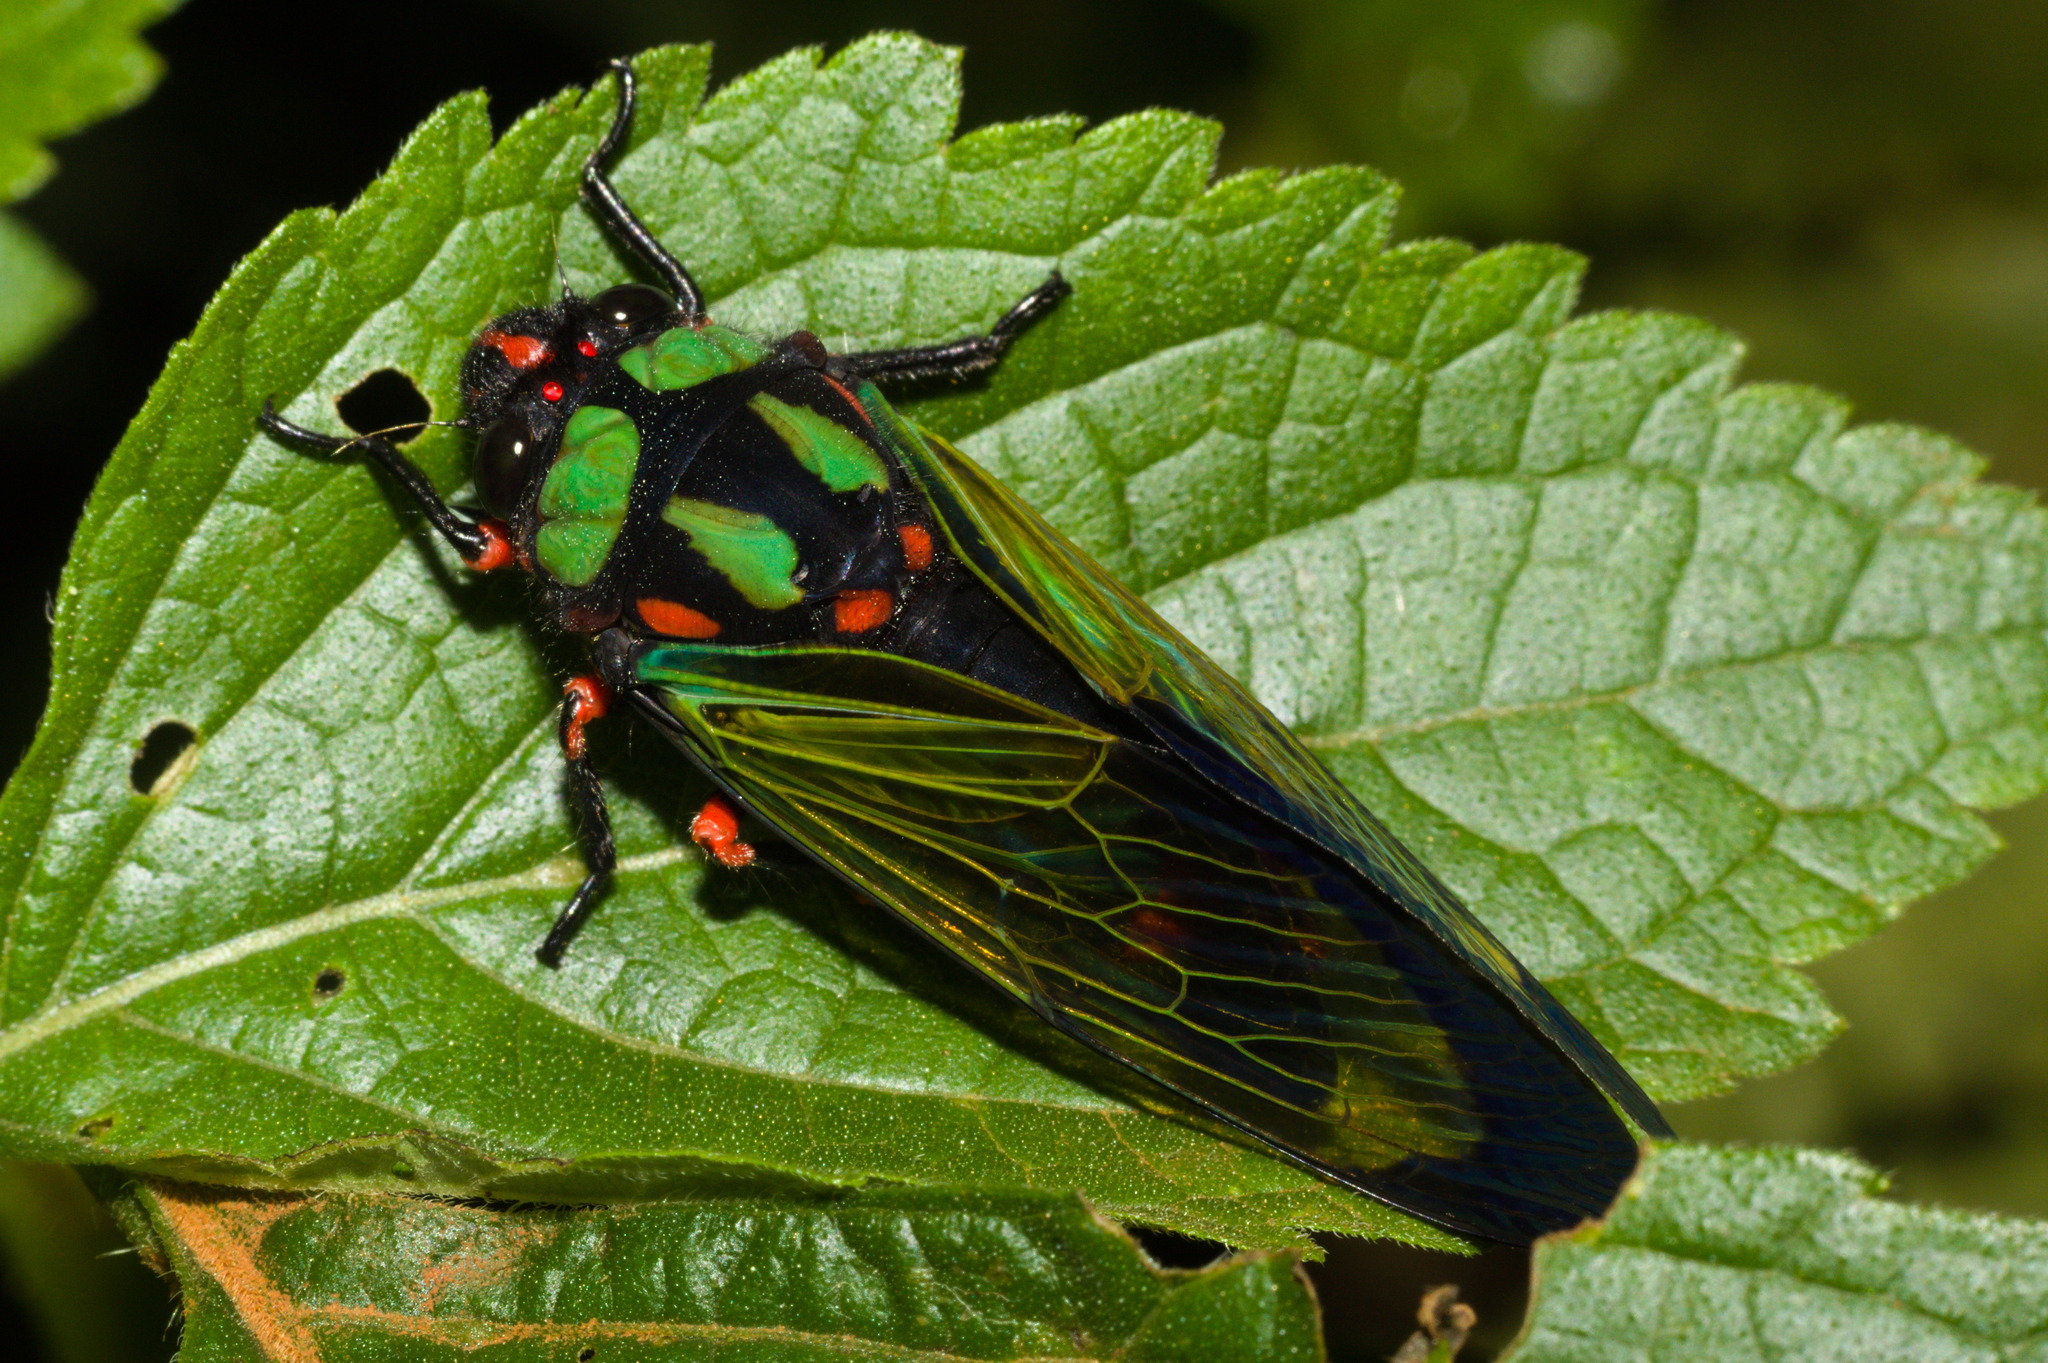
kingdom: Animalia
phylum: Arthropoda
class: Insecta
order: Hemiptera
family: Cicadidae
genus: Carineta
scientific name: Carineta diardi
